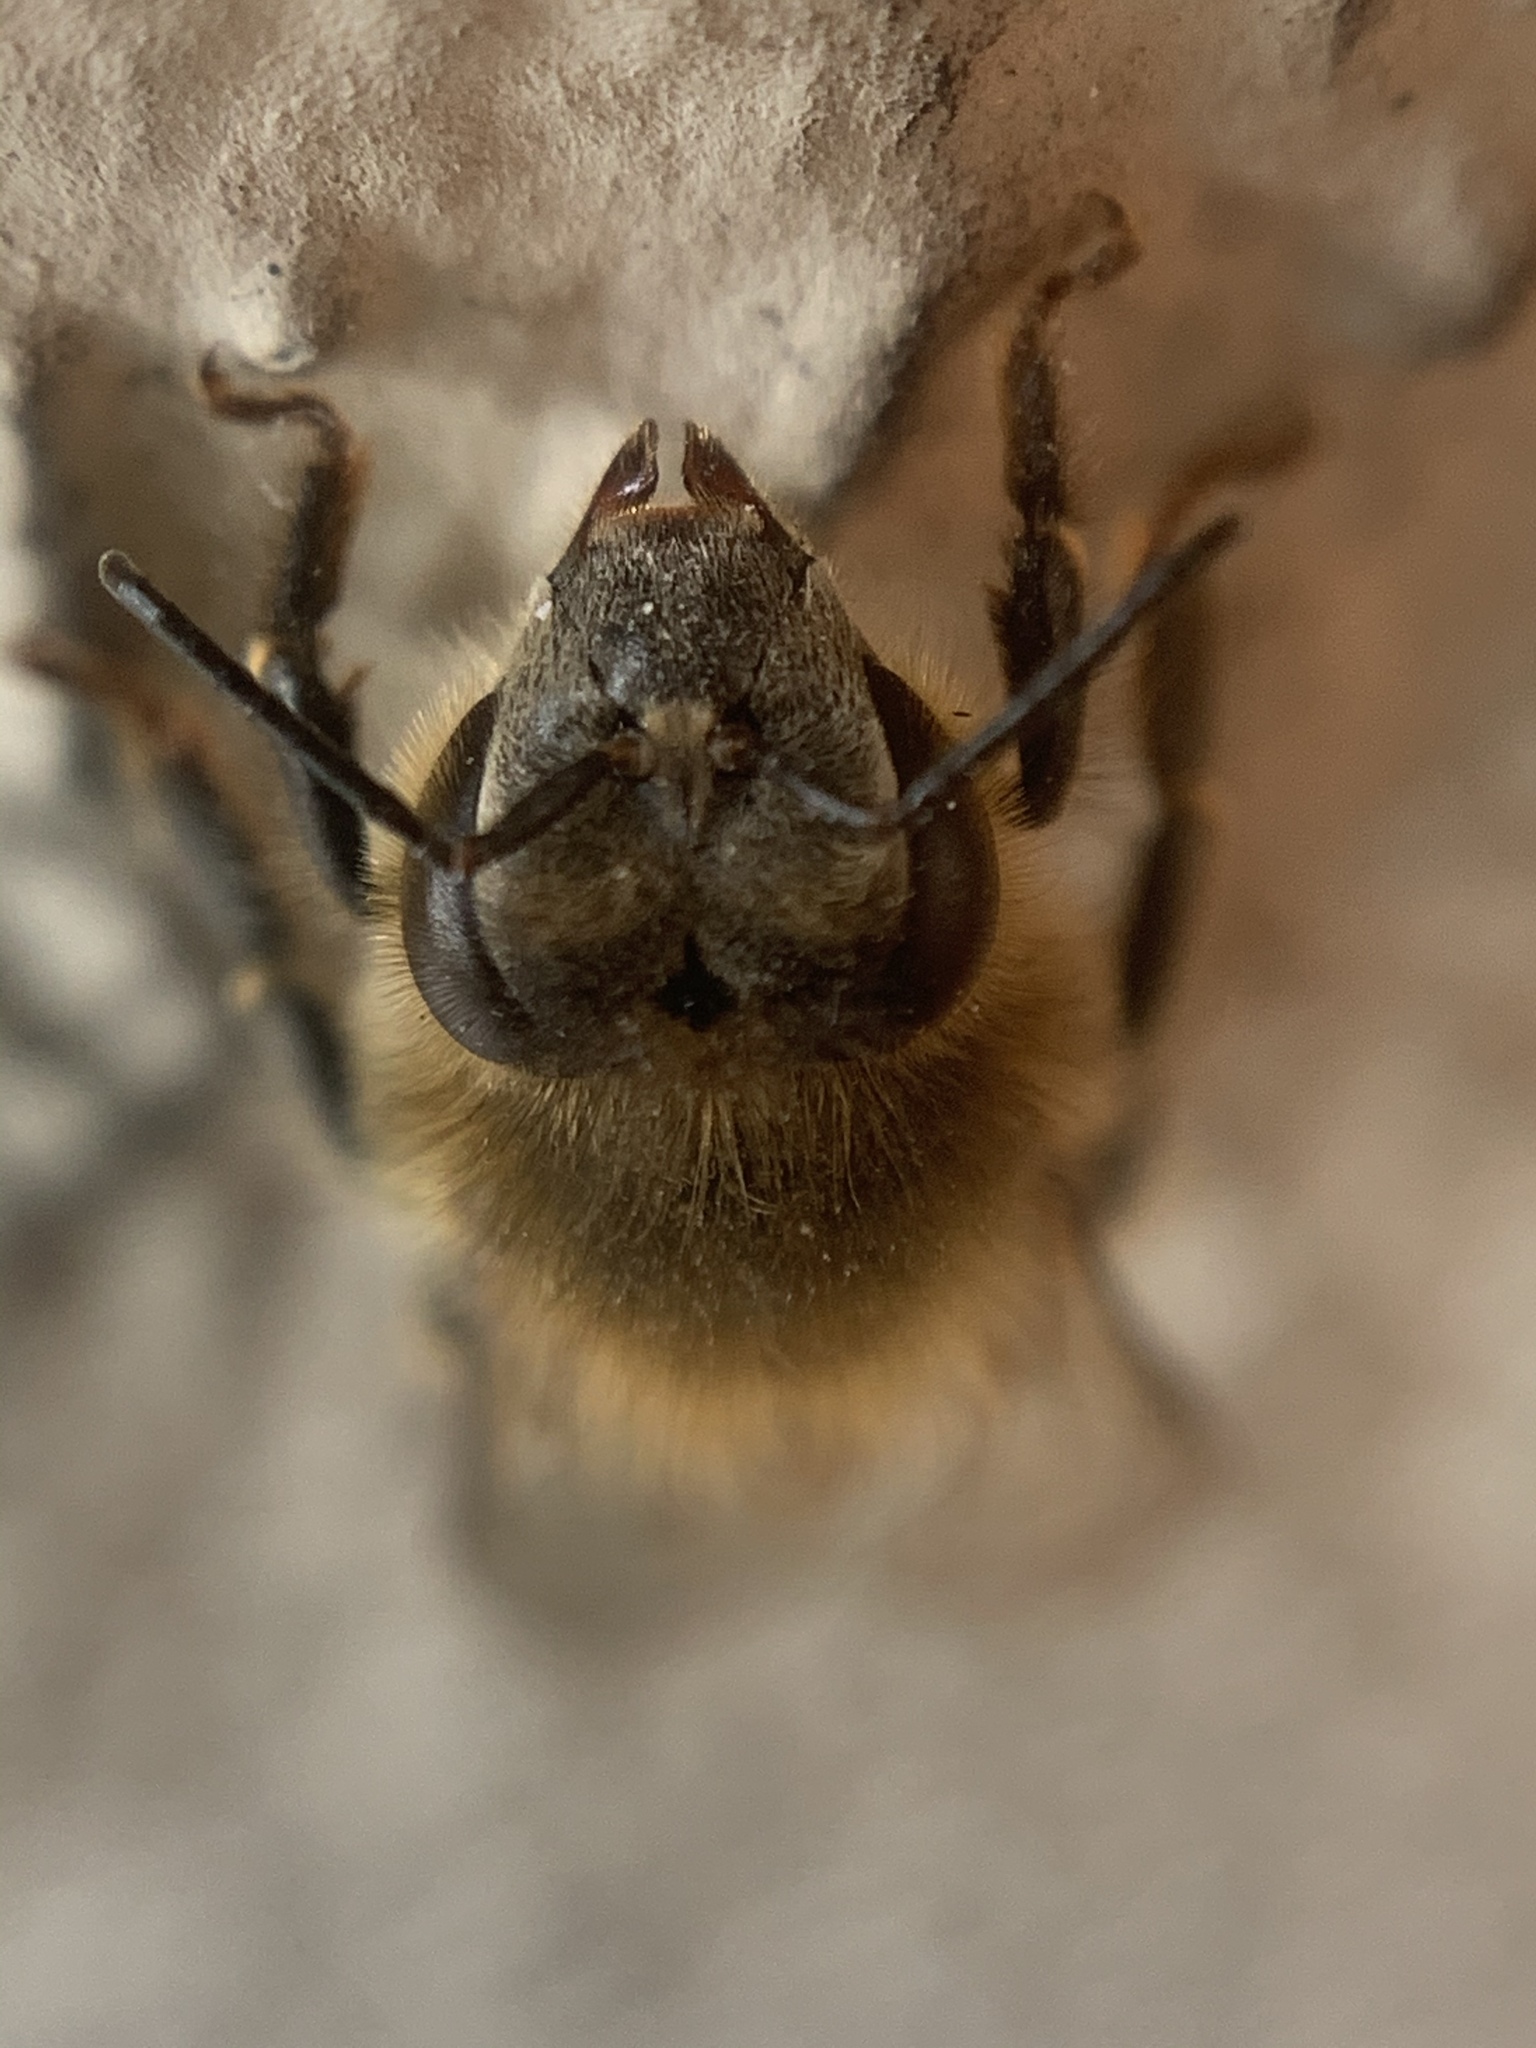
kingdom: Animalia
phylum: Arthropoda
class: Insecta
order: Hymenoptera
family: Apidae
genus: Apis
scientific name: Apis mellifera
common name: Honey bee
